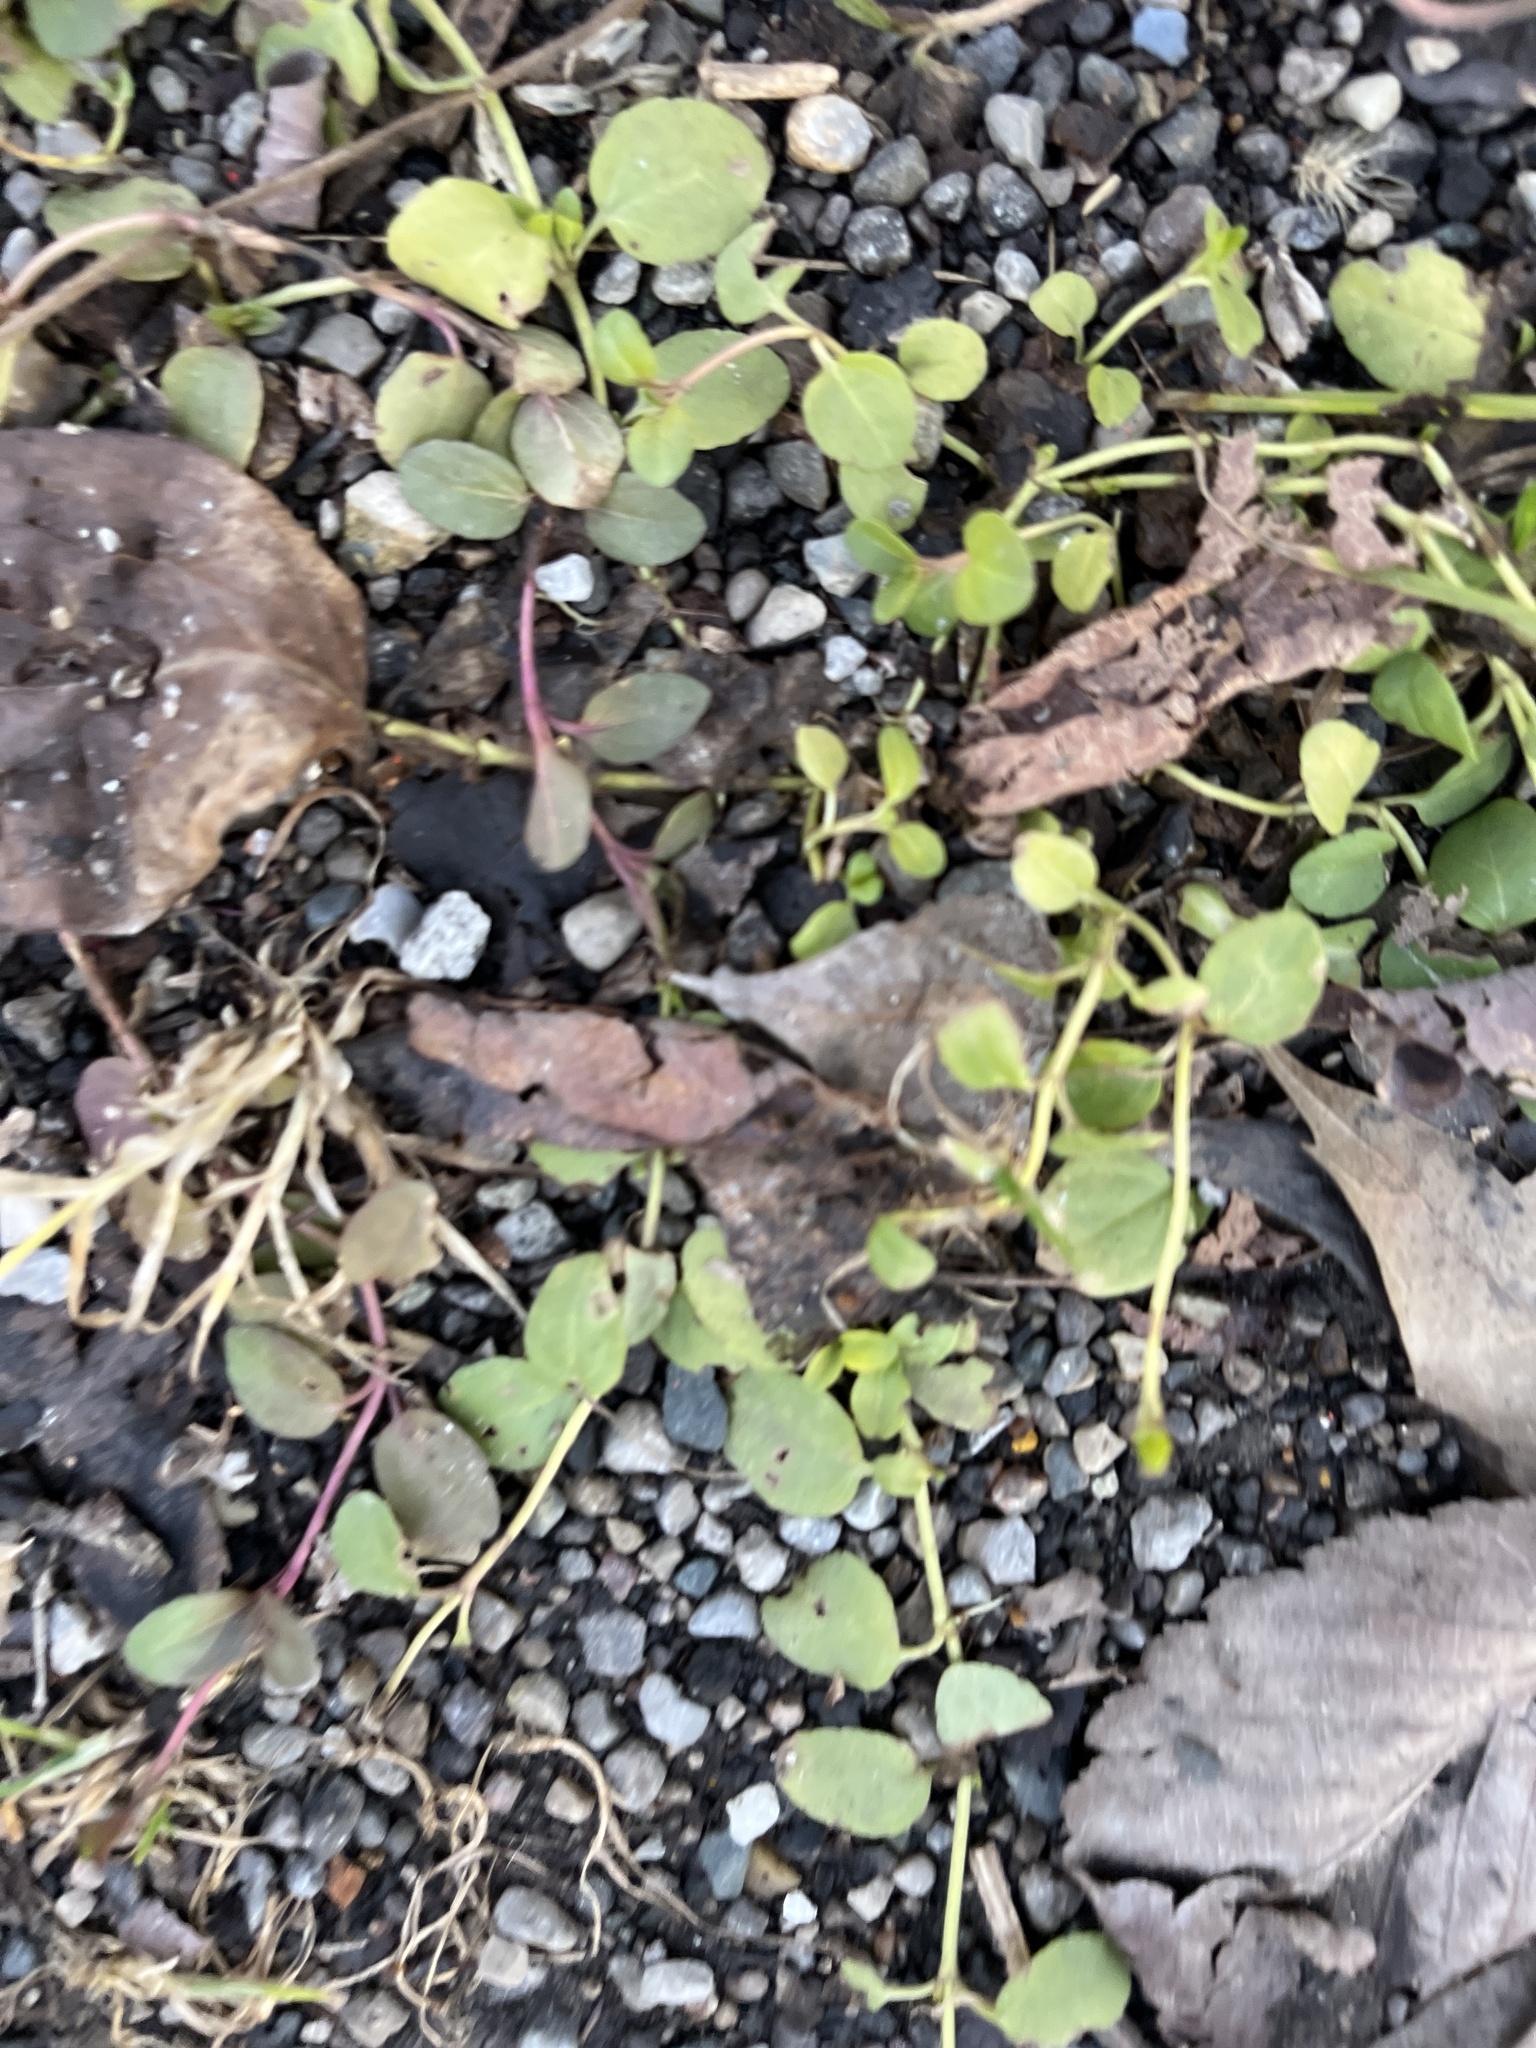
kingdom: Plantae
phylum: Tracheophyta
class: Magnoliopsida
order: Lamiales
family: Plantaginaceae
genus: Veronica
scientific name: Veronica serpyllifolia
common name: Thyme-leaved speedwell
